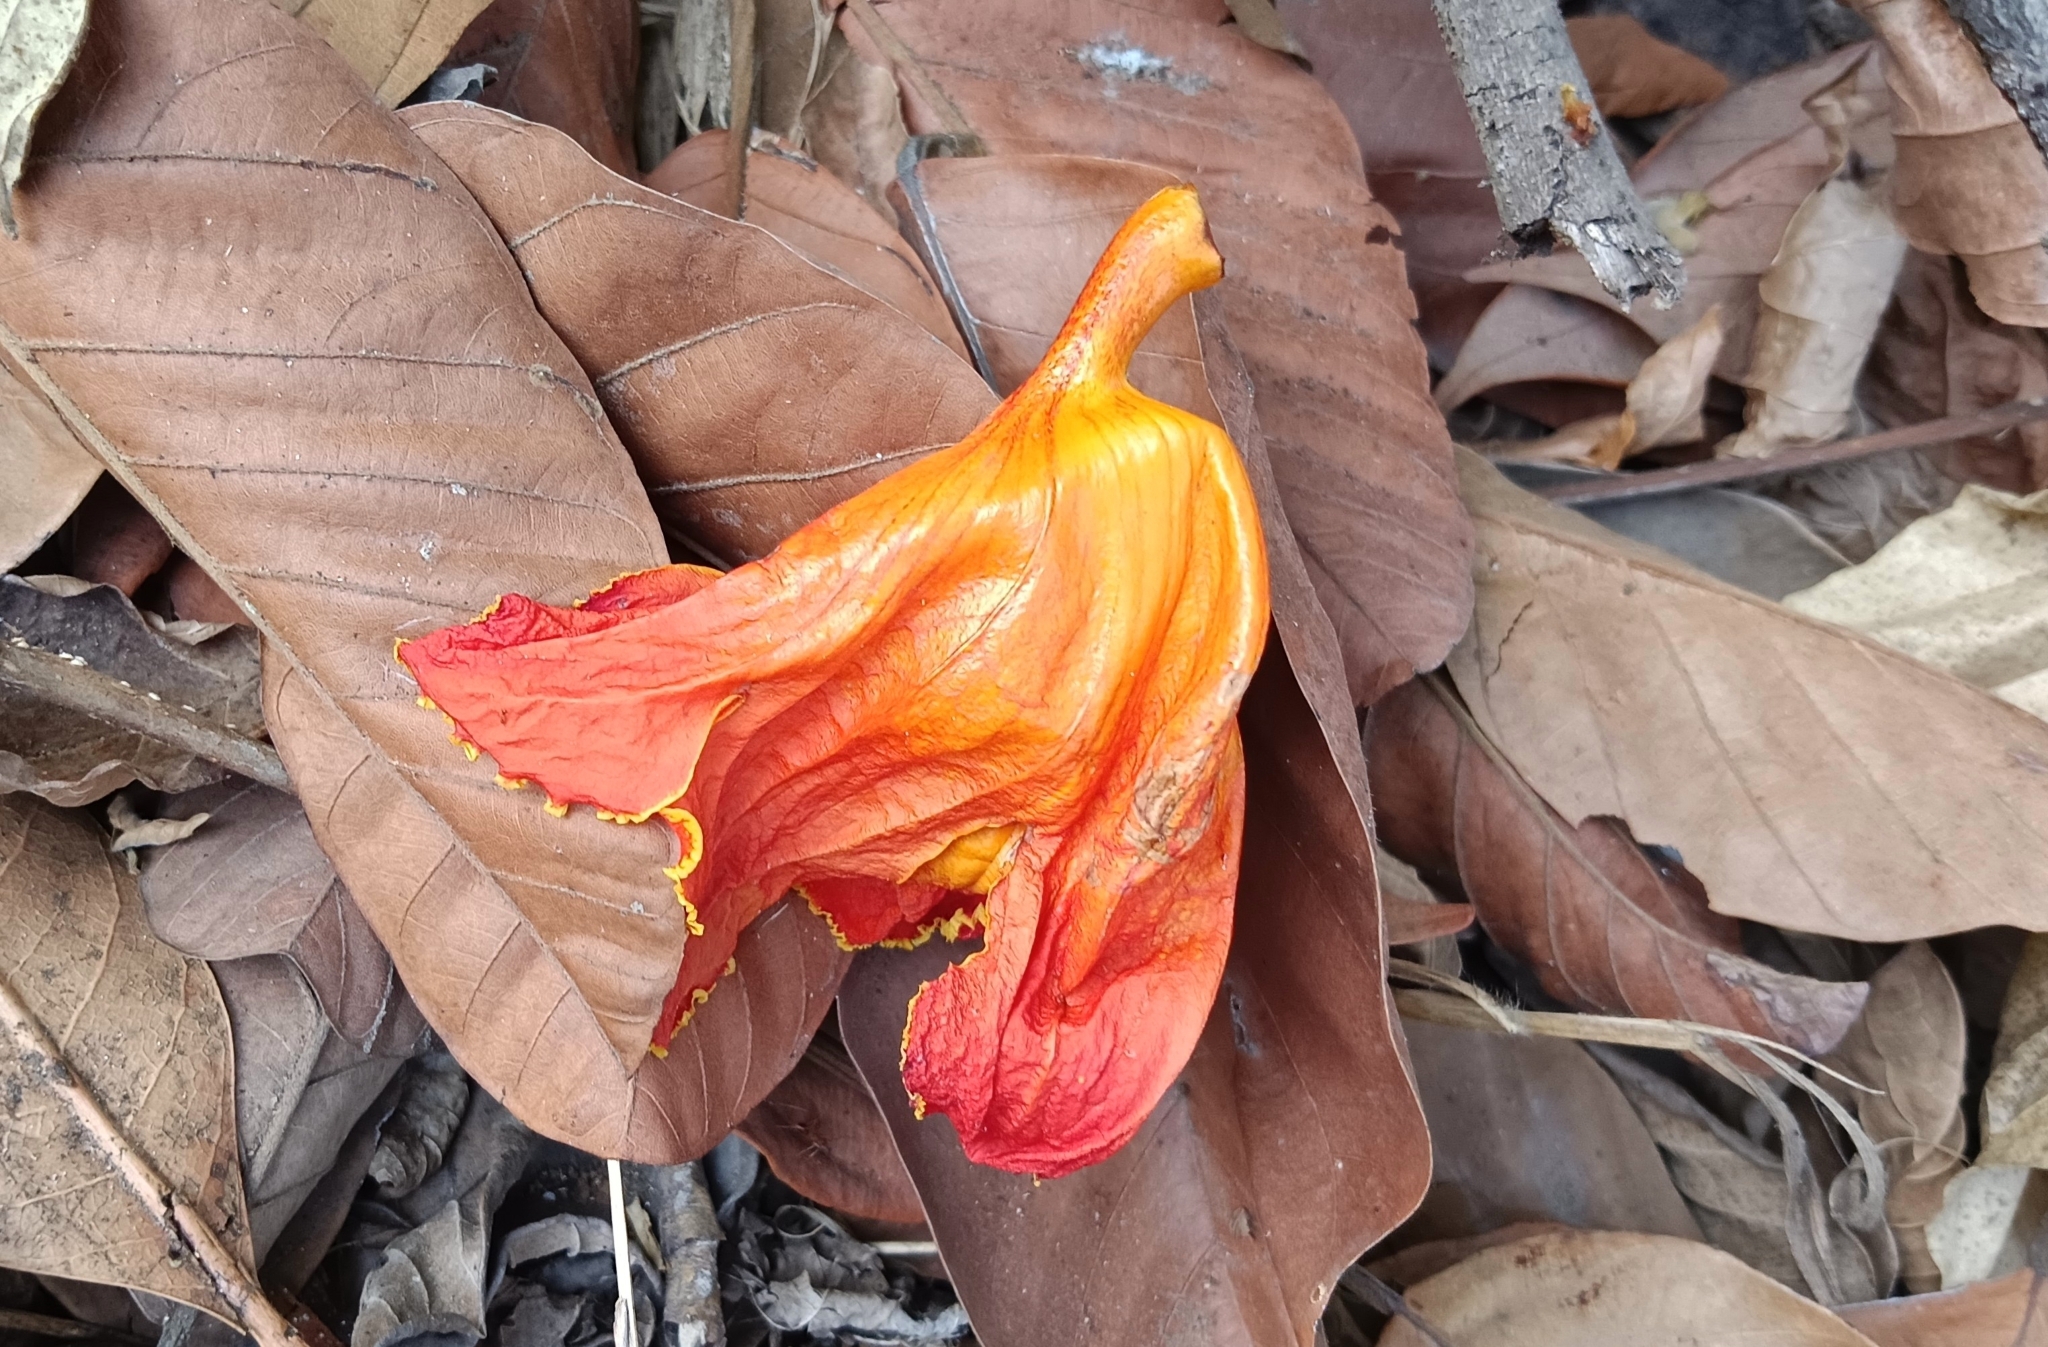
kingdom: Plantae
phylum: Tracheophyta
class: Magnoliopsida
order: Lamiales
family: Bignoniaceae
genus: Spathodea
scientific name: Spathodea campanulata
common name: African tuliptree
